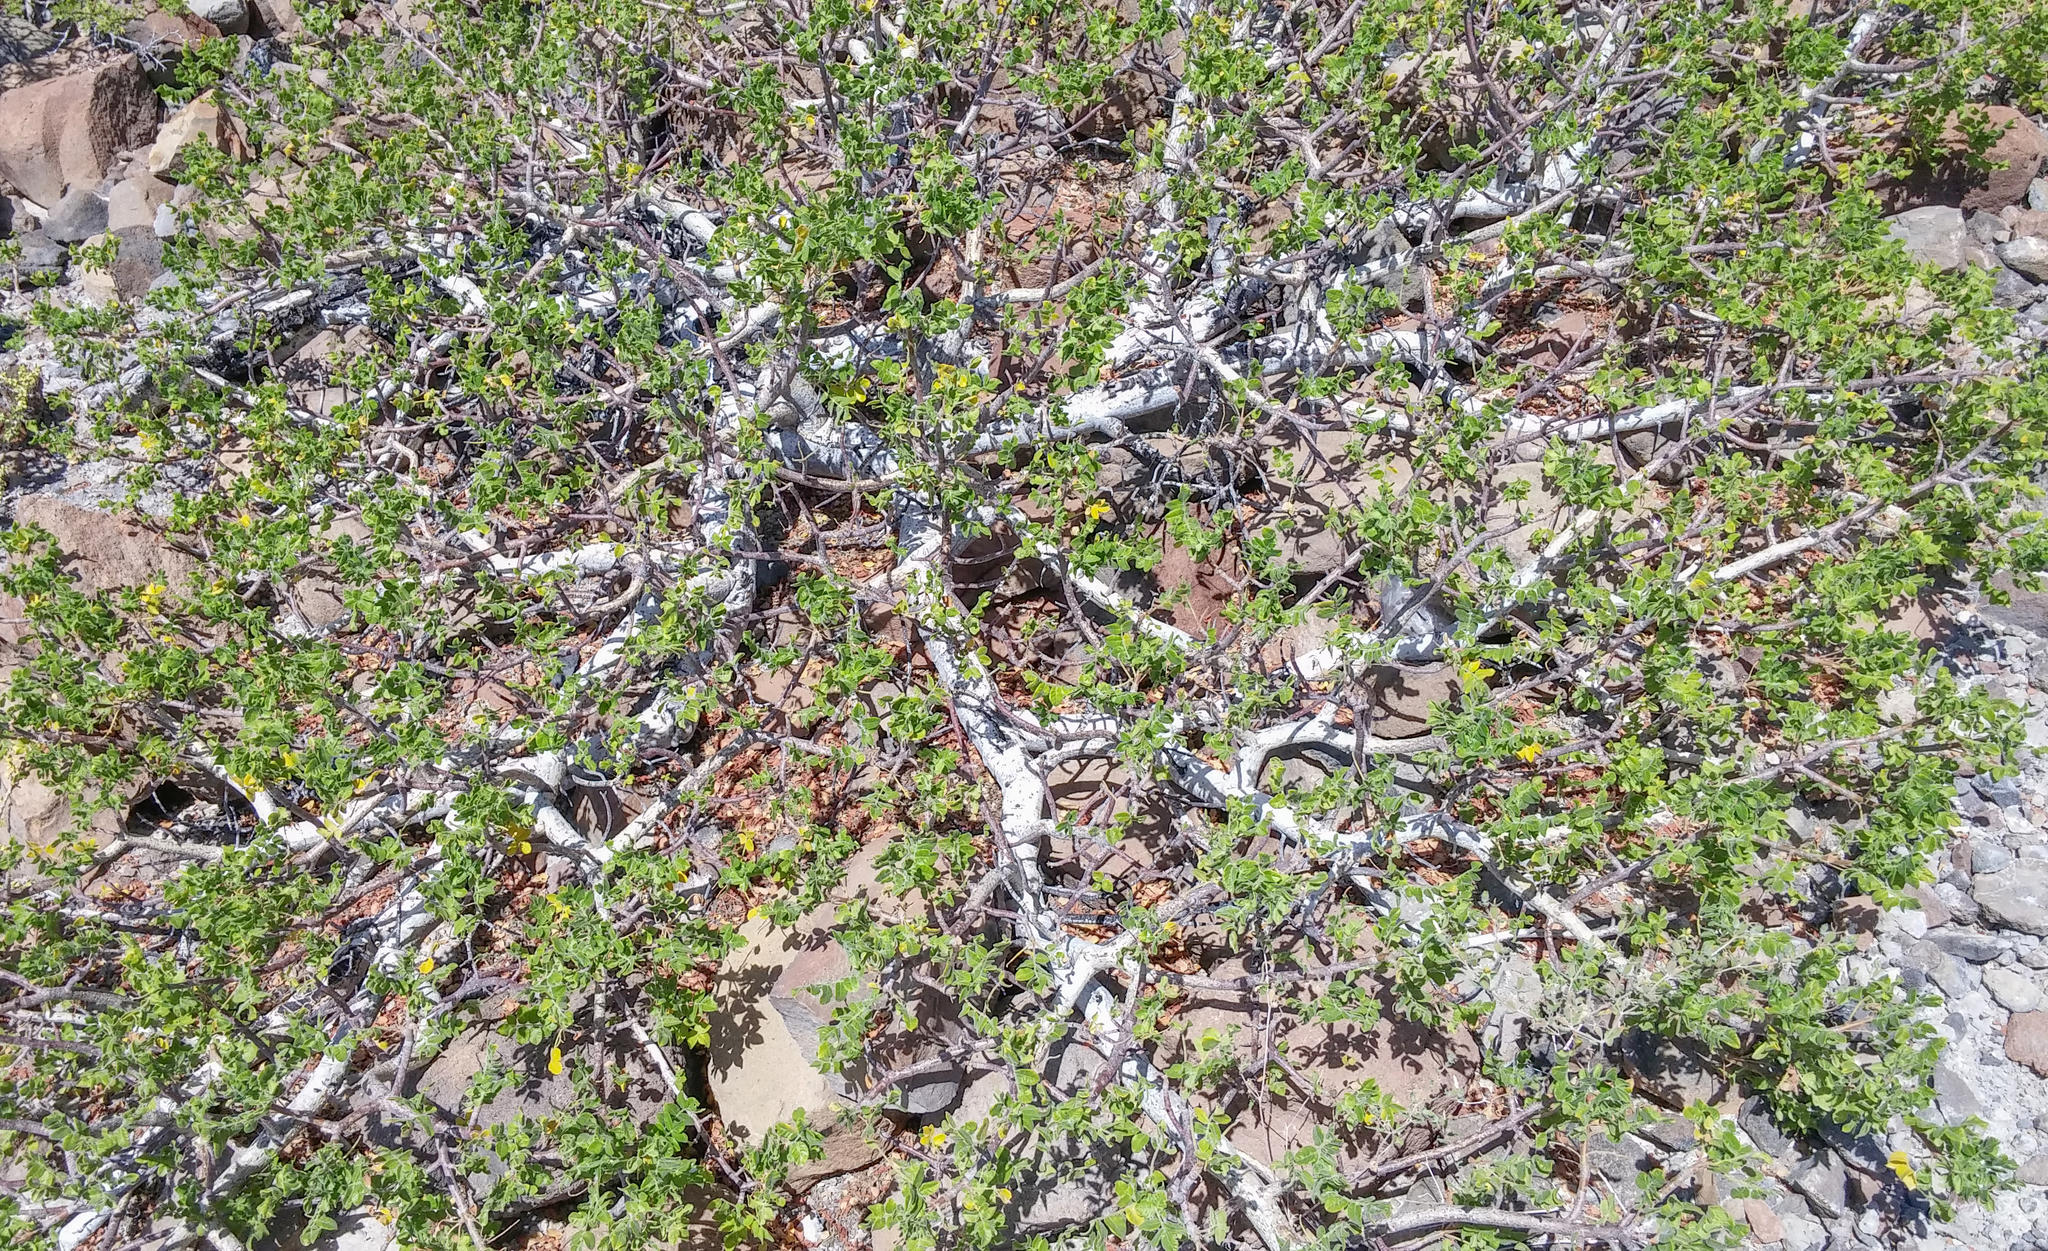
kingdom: Plantae
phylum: Tracheophyta
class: Magnoliopsida
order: Sapindales
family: Anacardiaceae
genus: Cyrtocarpa
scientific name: Cyrtocarpa edulis
